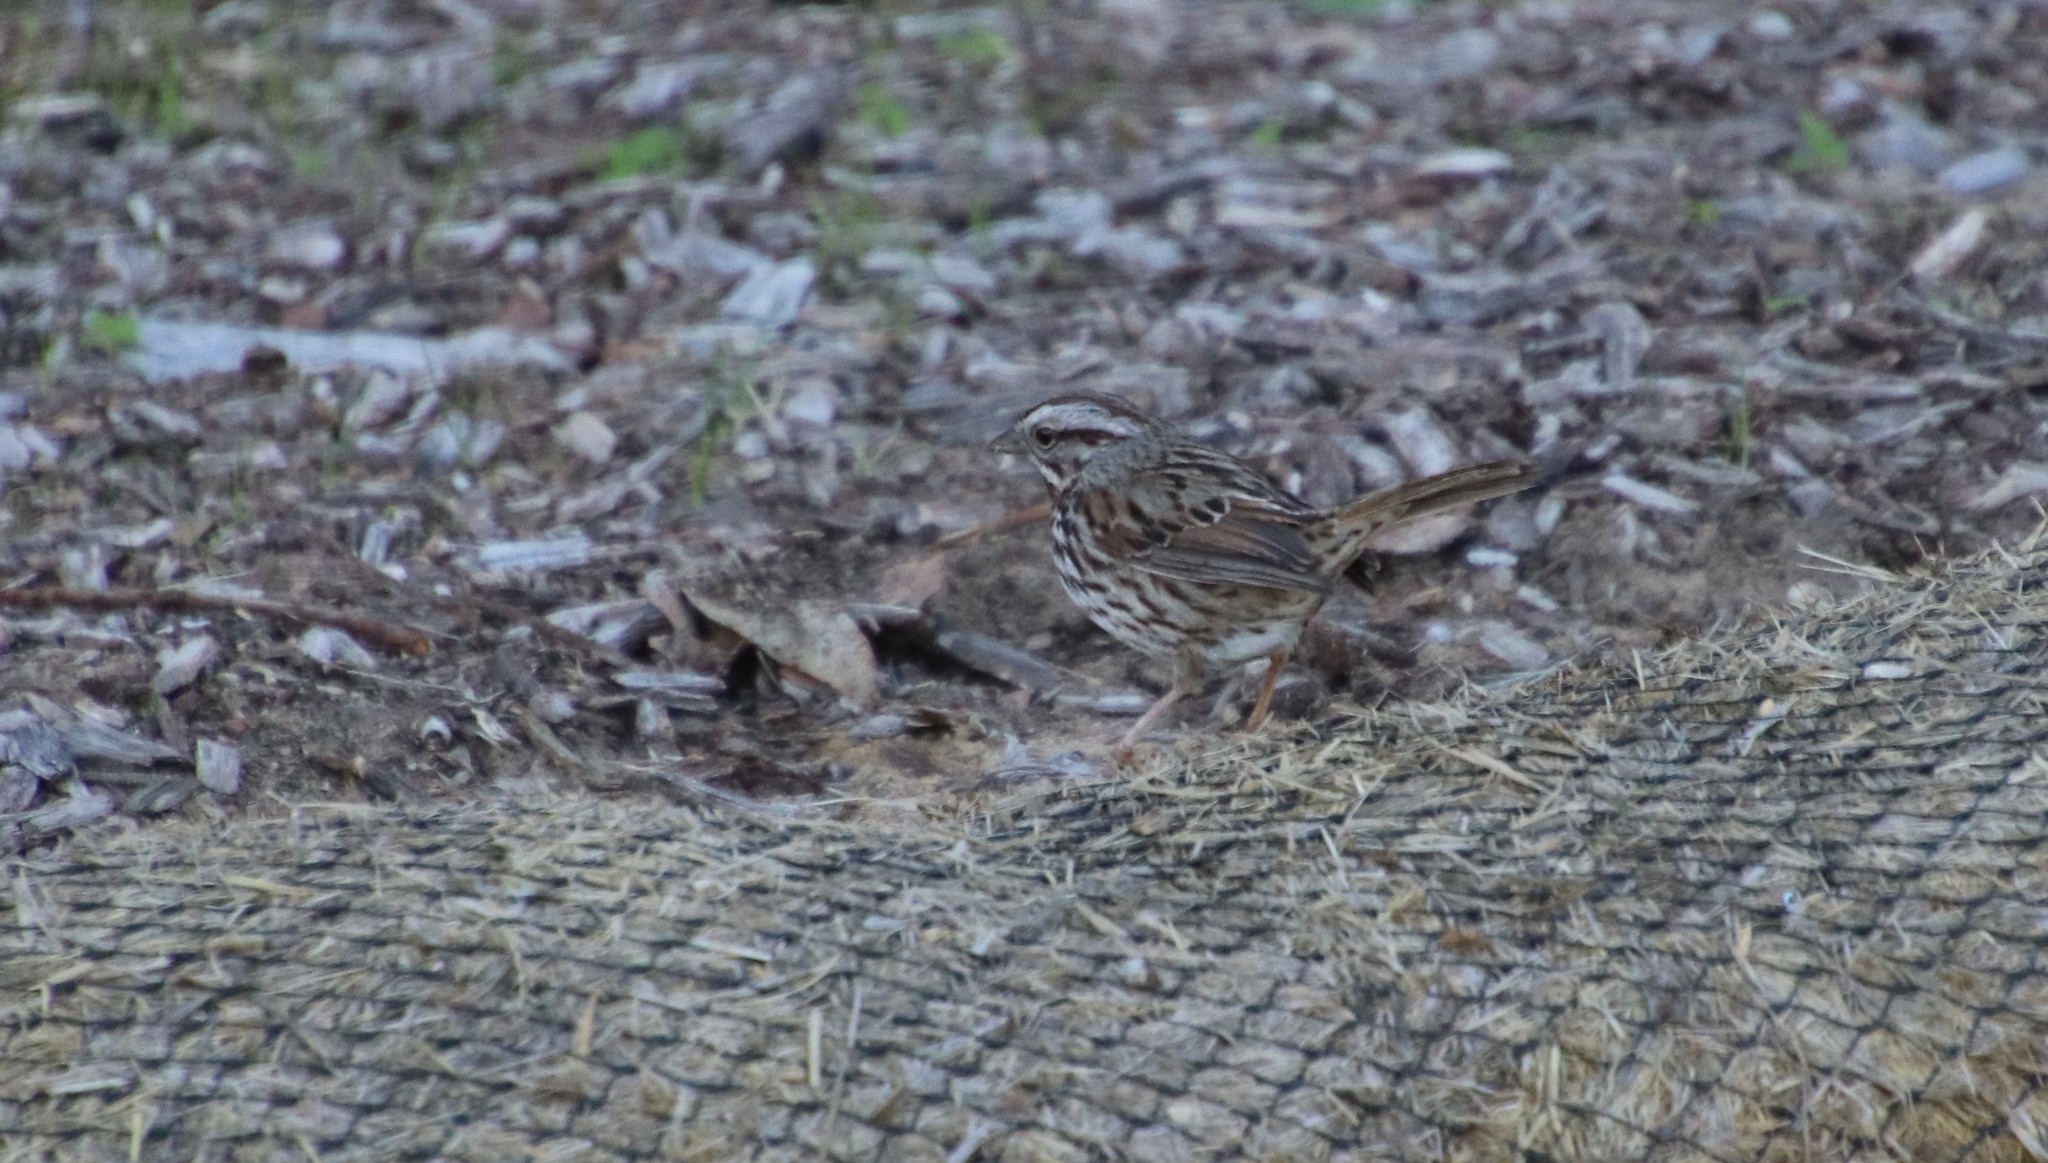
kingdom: Animalia
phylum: Chordata
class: Aves
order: Passeriformes
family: Passerellidae
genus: Melospiza
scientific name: Melospiza melodia
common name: Song sparrow
